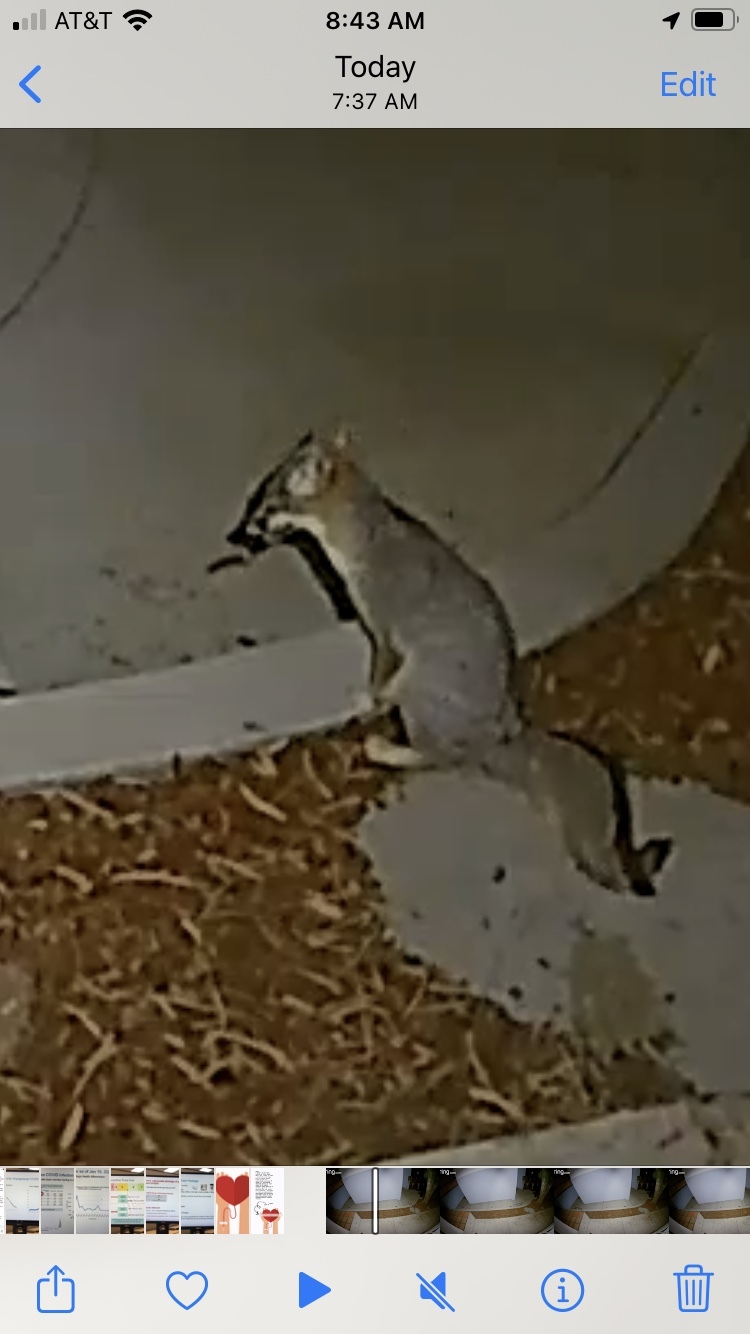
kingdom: Animalia
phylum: Chordata
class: Mammalia
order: Carnivora
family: Canidae
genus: Urocyon
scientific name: Urocyon cinereoargenteus
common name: Gray fox
